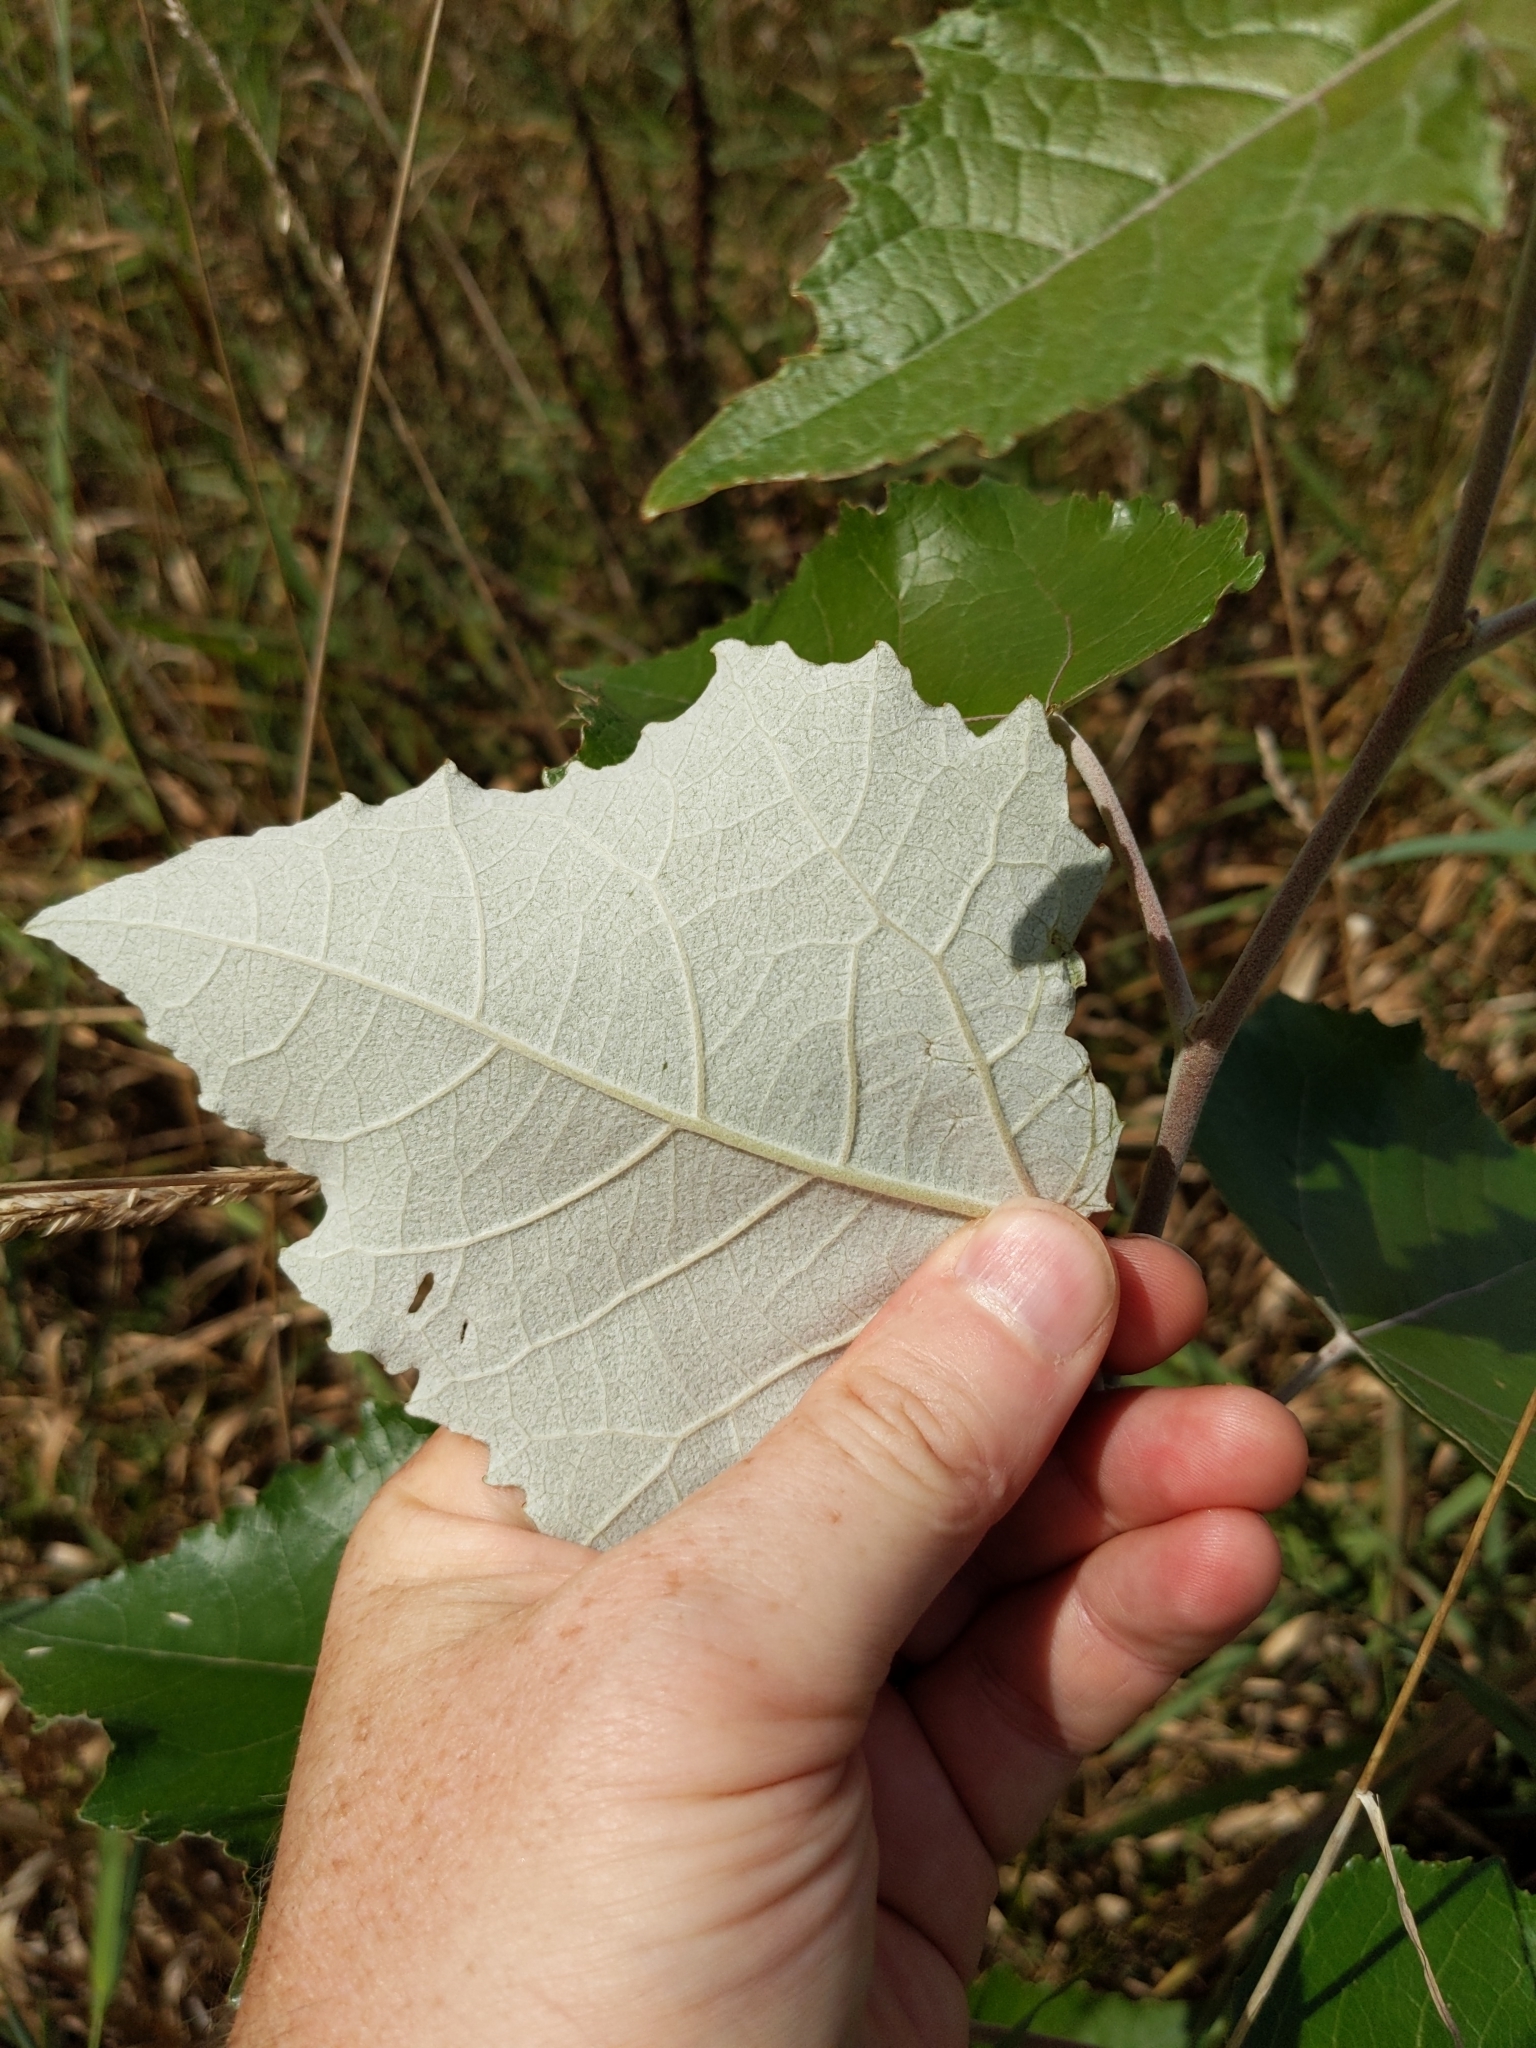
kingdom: Plantae
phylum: Tracheophyta
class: Magnoliopsida
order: Malpighiales
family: Salicaceae
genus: Populus
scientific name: Populus alba
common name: White poplar
